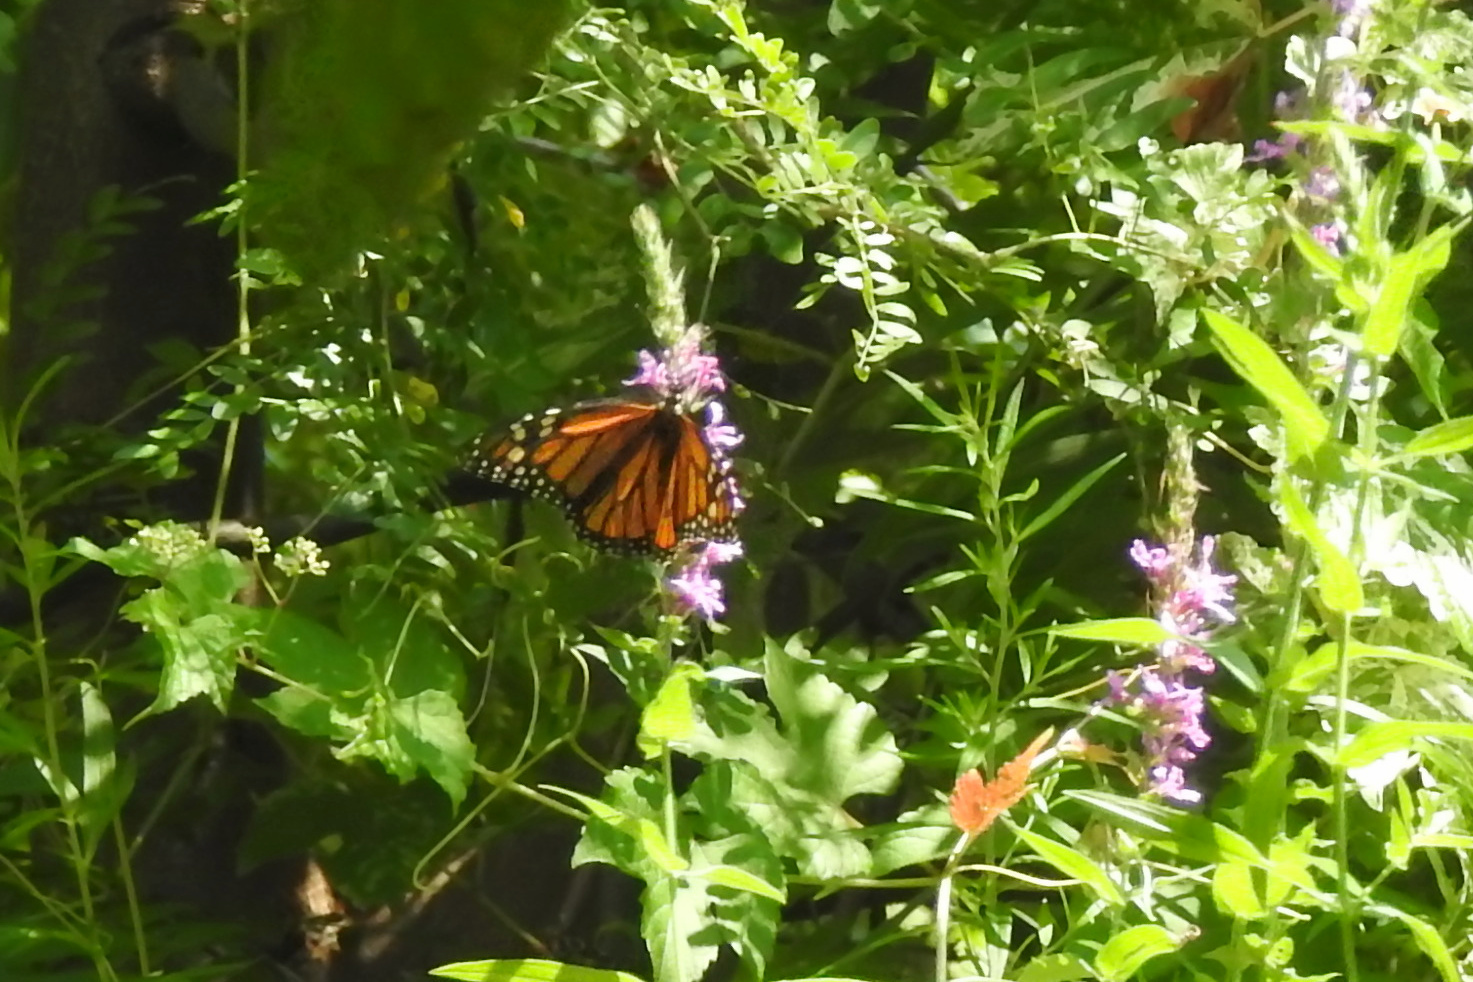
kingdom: Animalia
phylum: Arthropoda
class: Insecta
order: Lepidoptera
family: Nymphalidae
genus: Danaus
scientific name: Danaus plexippus
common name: Monarch
